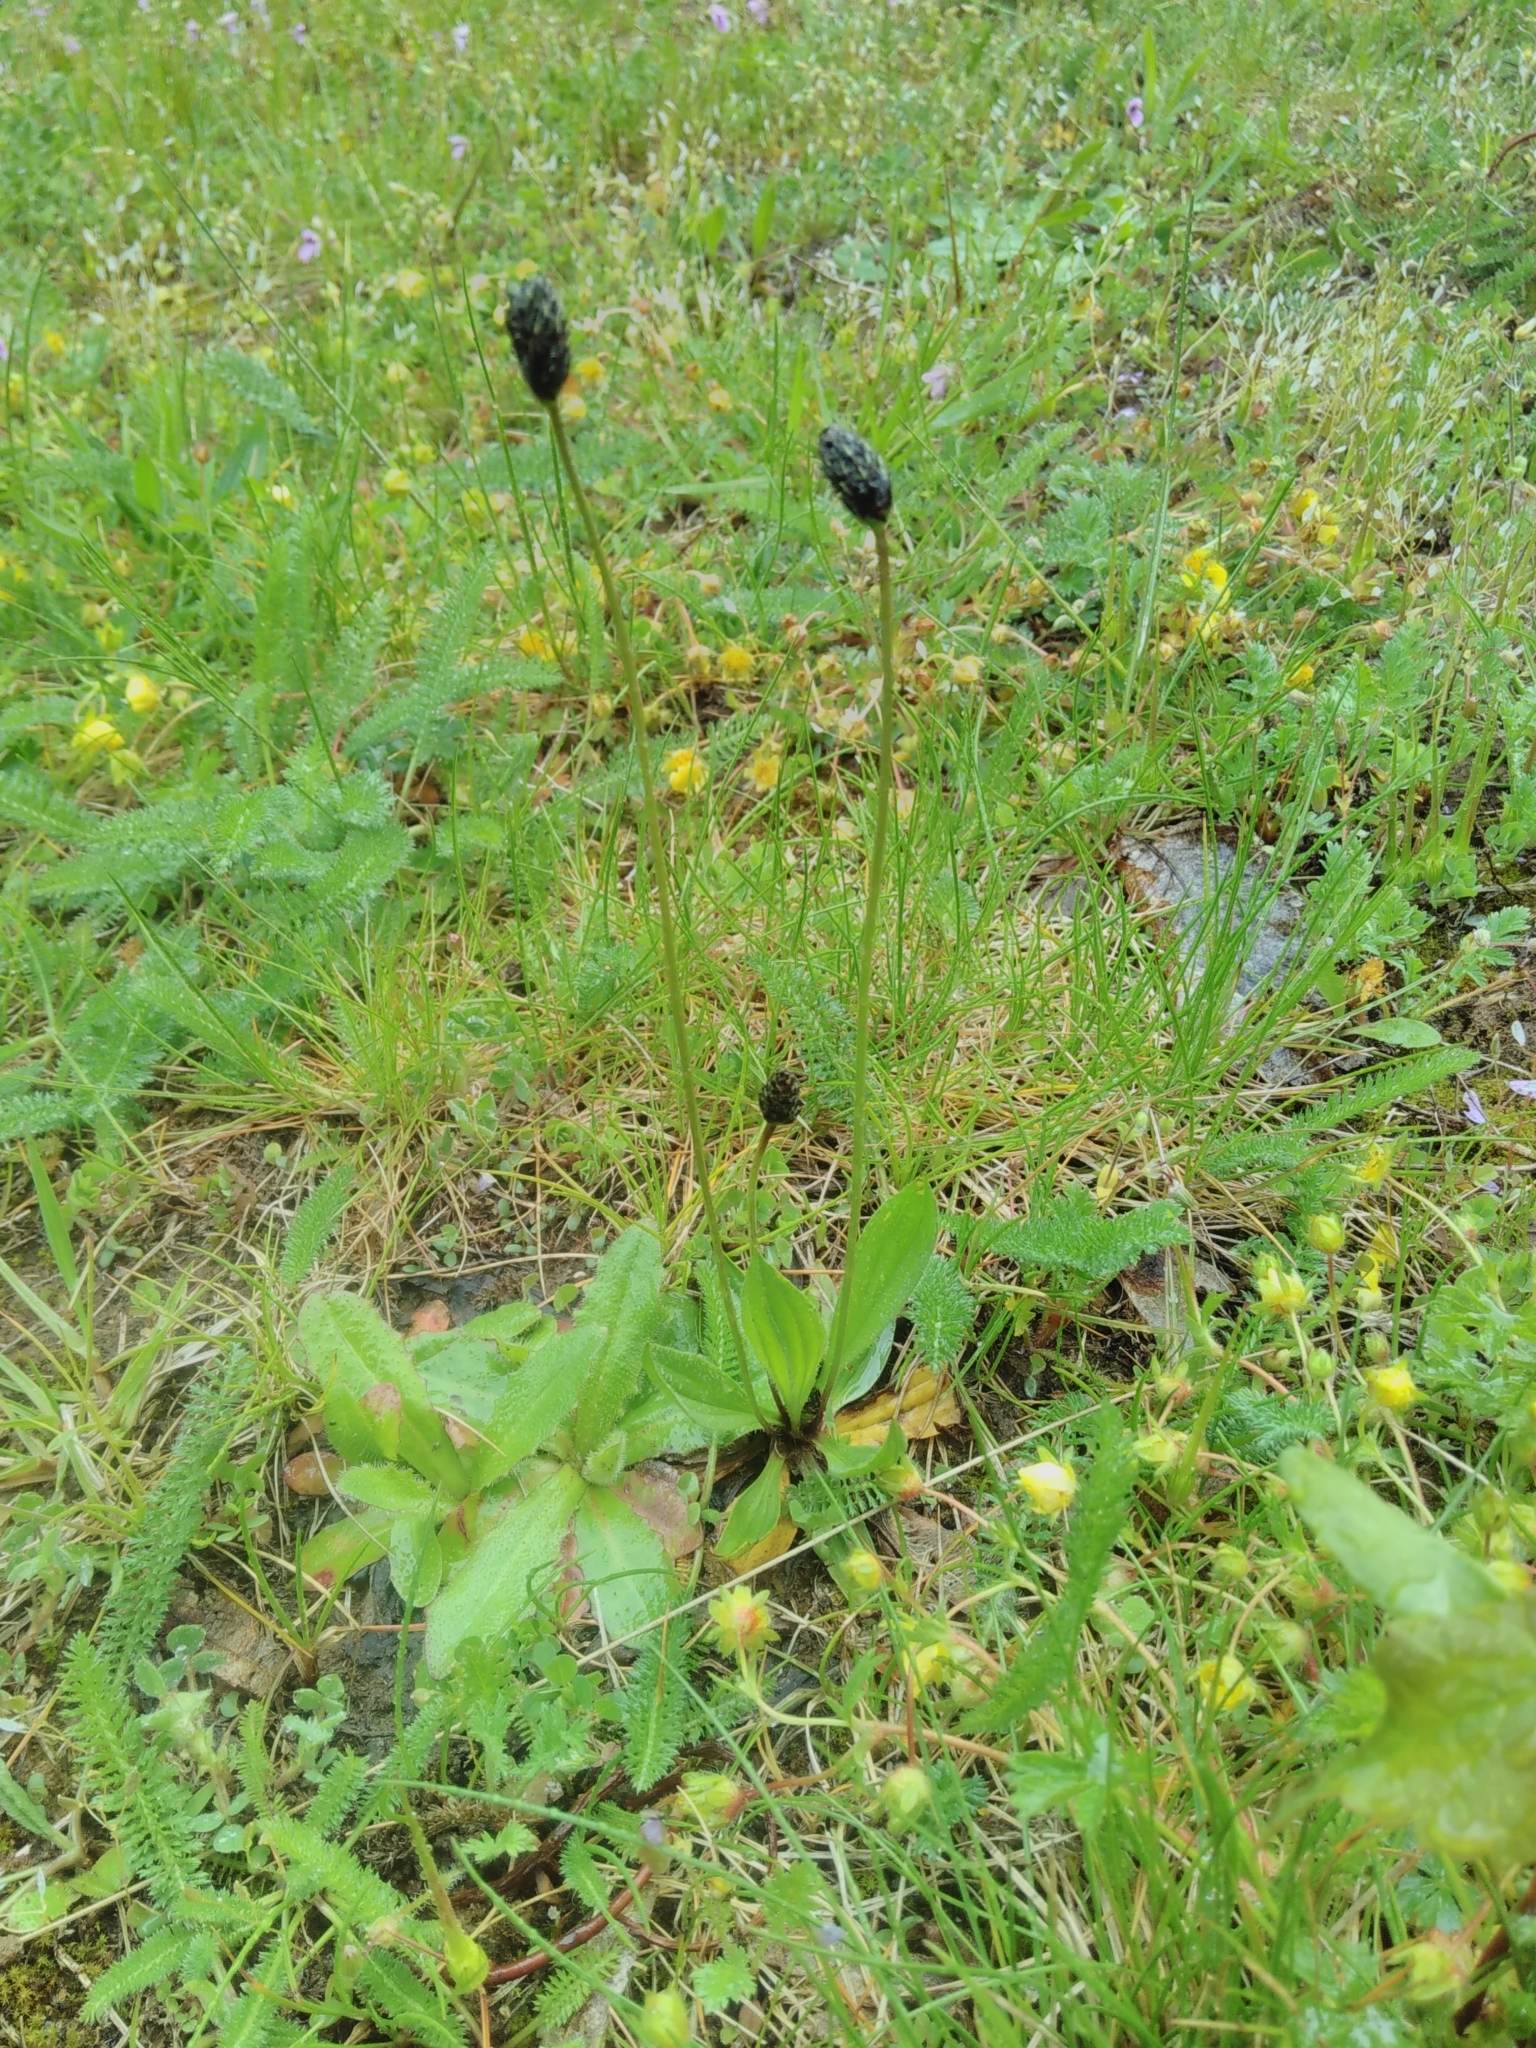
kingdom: Plantae
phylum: Tracheophyta
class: Magnoliopsida
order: Lamiales
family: Plantaginaceae
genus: Plantago
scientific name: Plantago lanceolata
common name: Ribwort plantain
